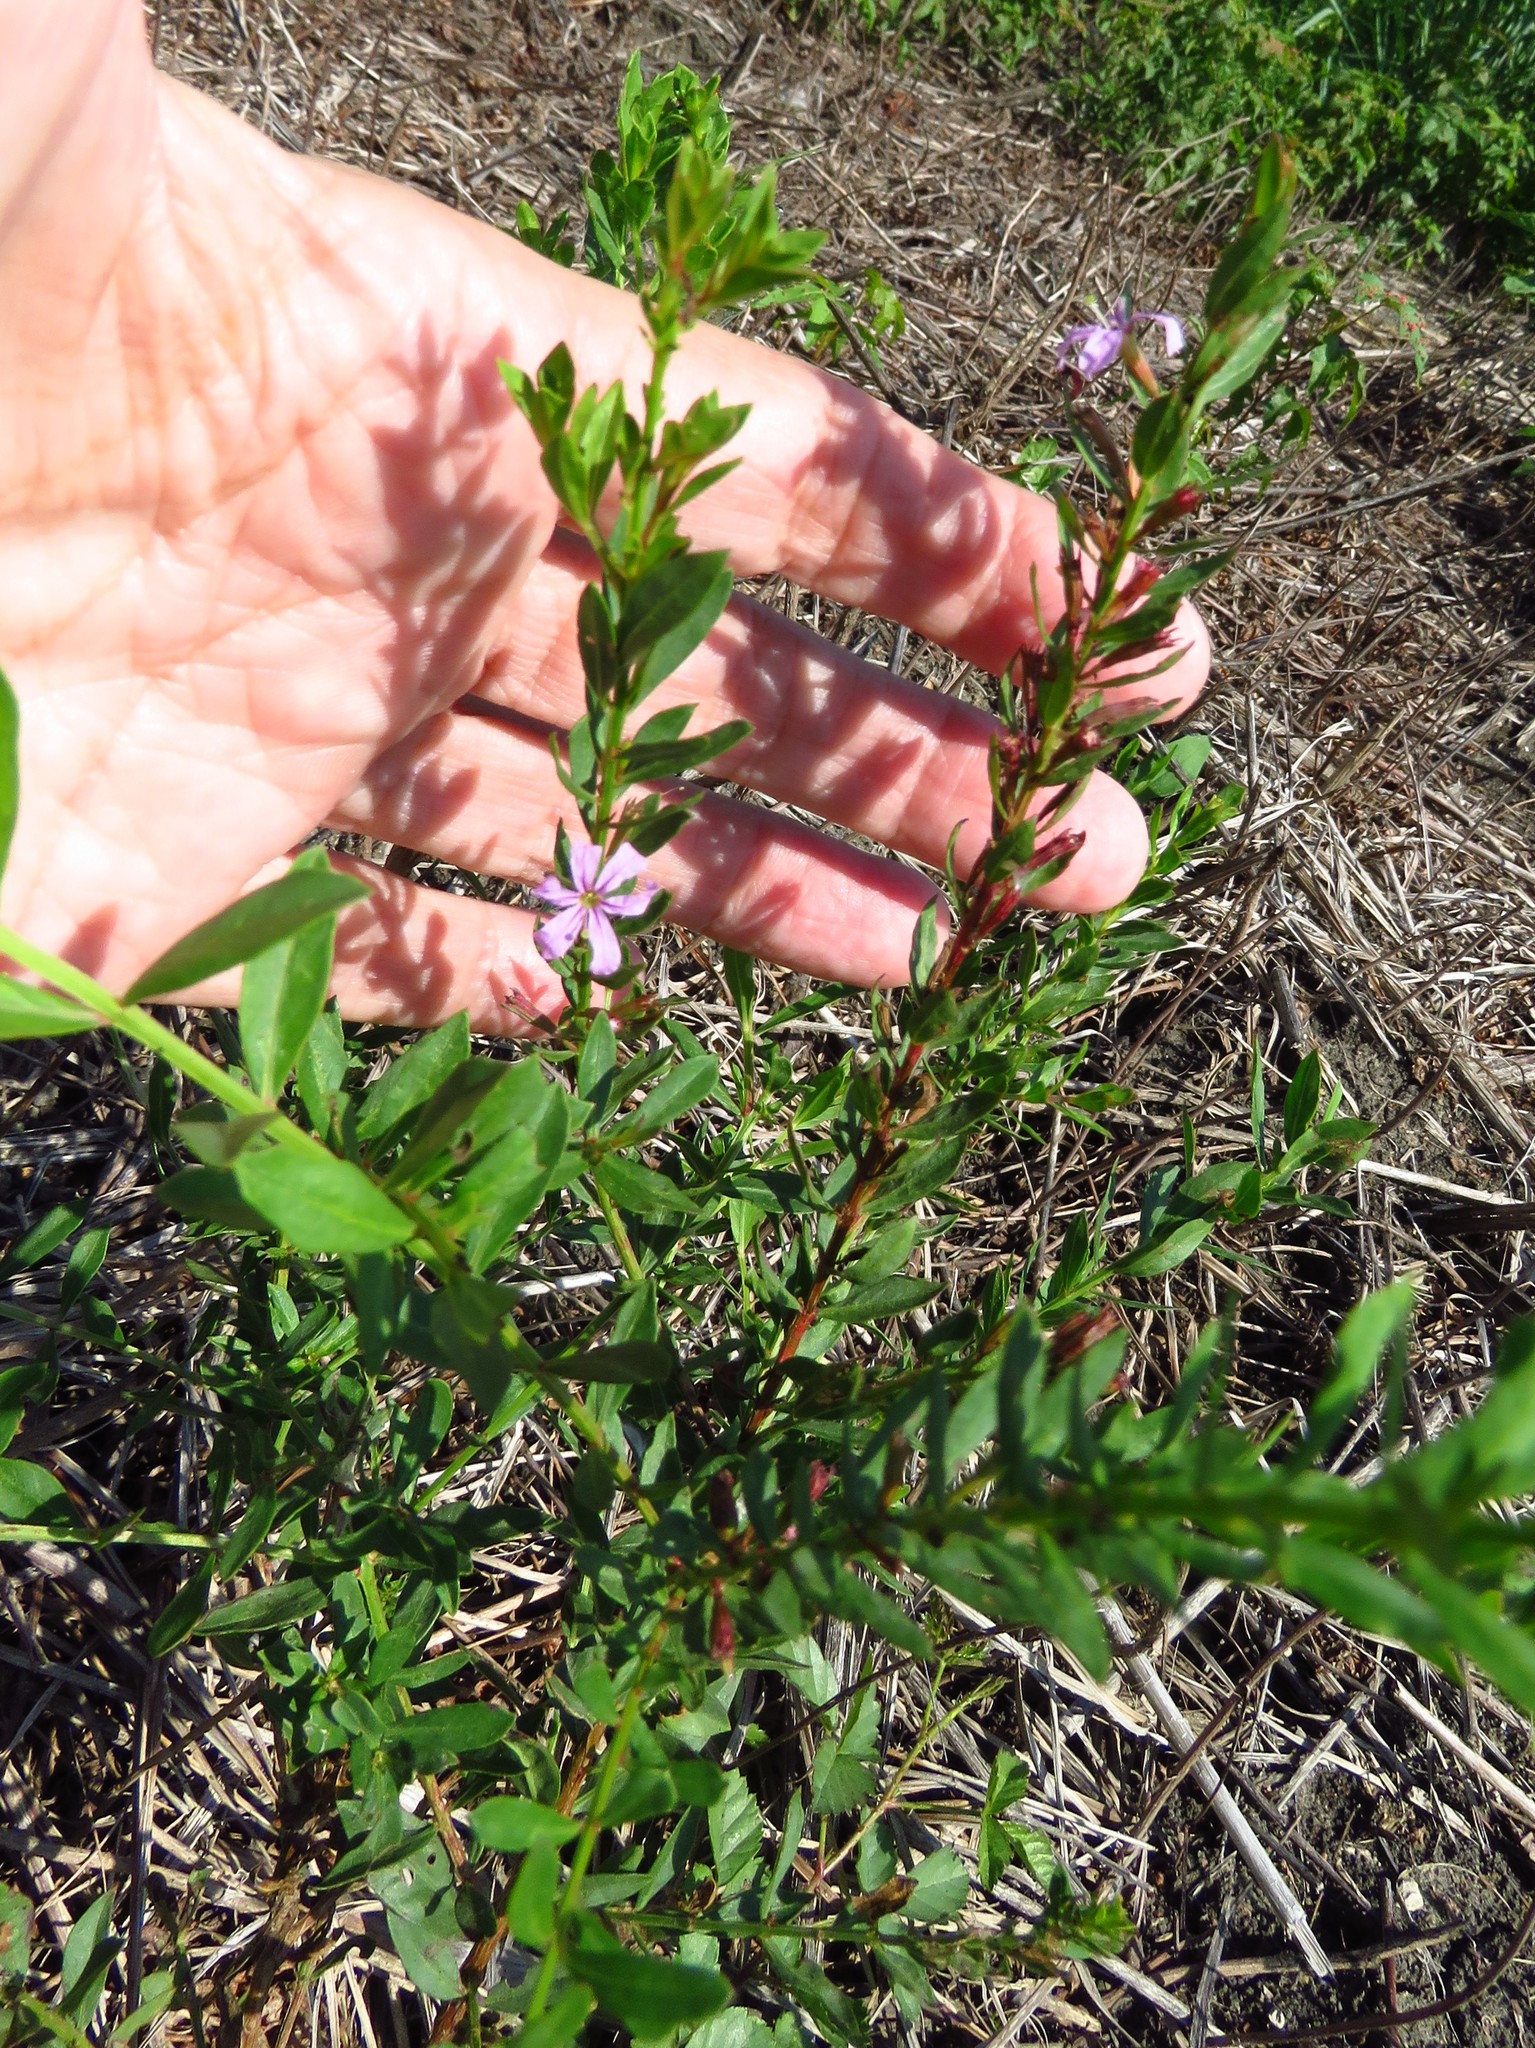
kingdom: Plantae
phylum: Tracheophyta
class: Magnoliopsida
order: Myrtales
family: Lythraceae
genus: Lythrum
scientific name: Lythrum alatum
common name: Winged loosestrife
